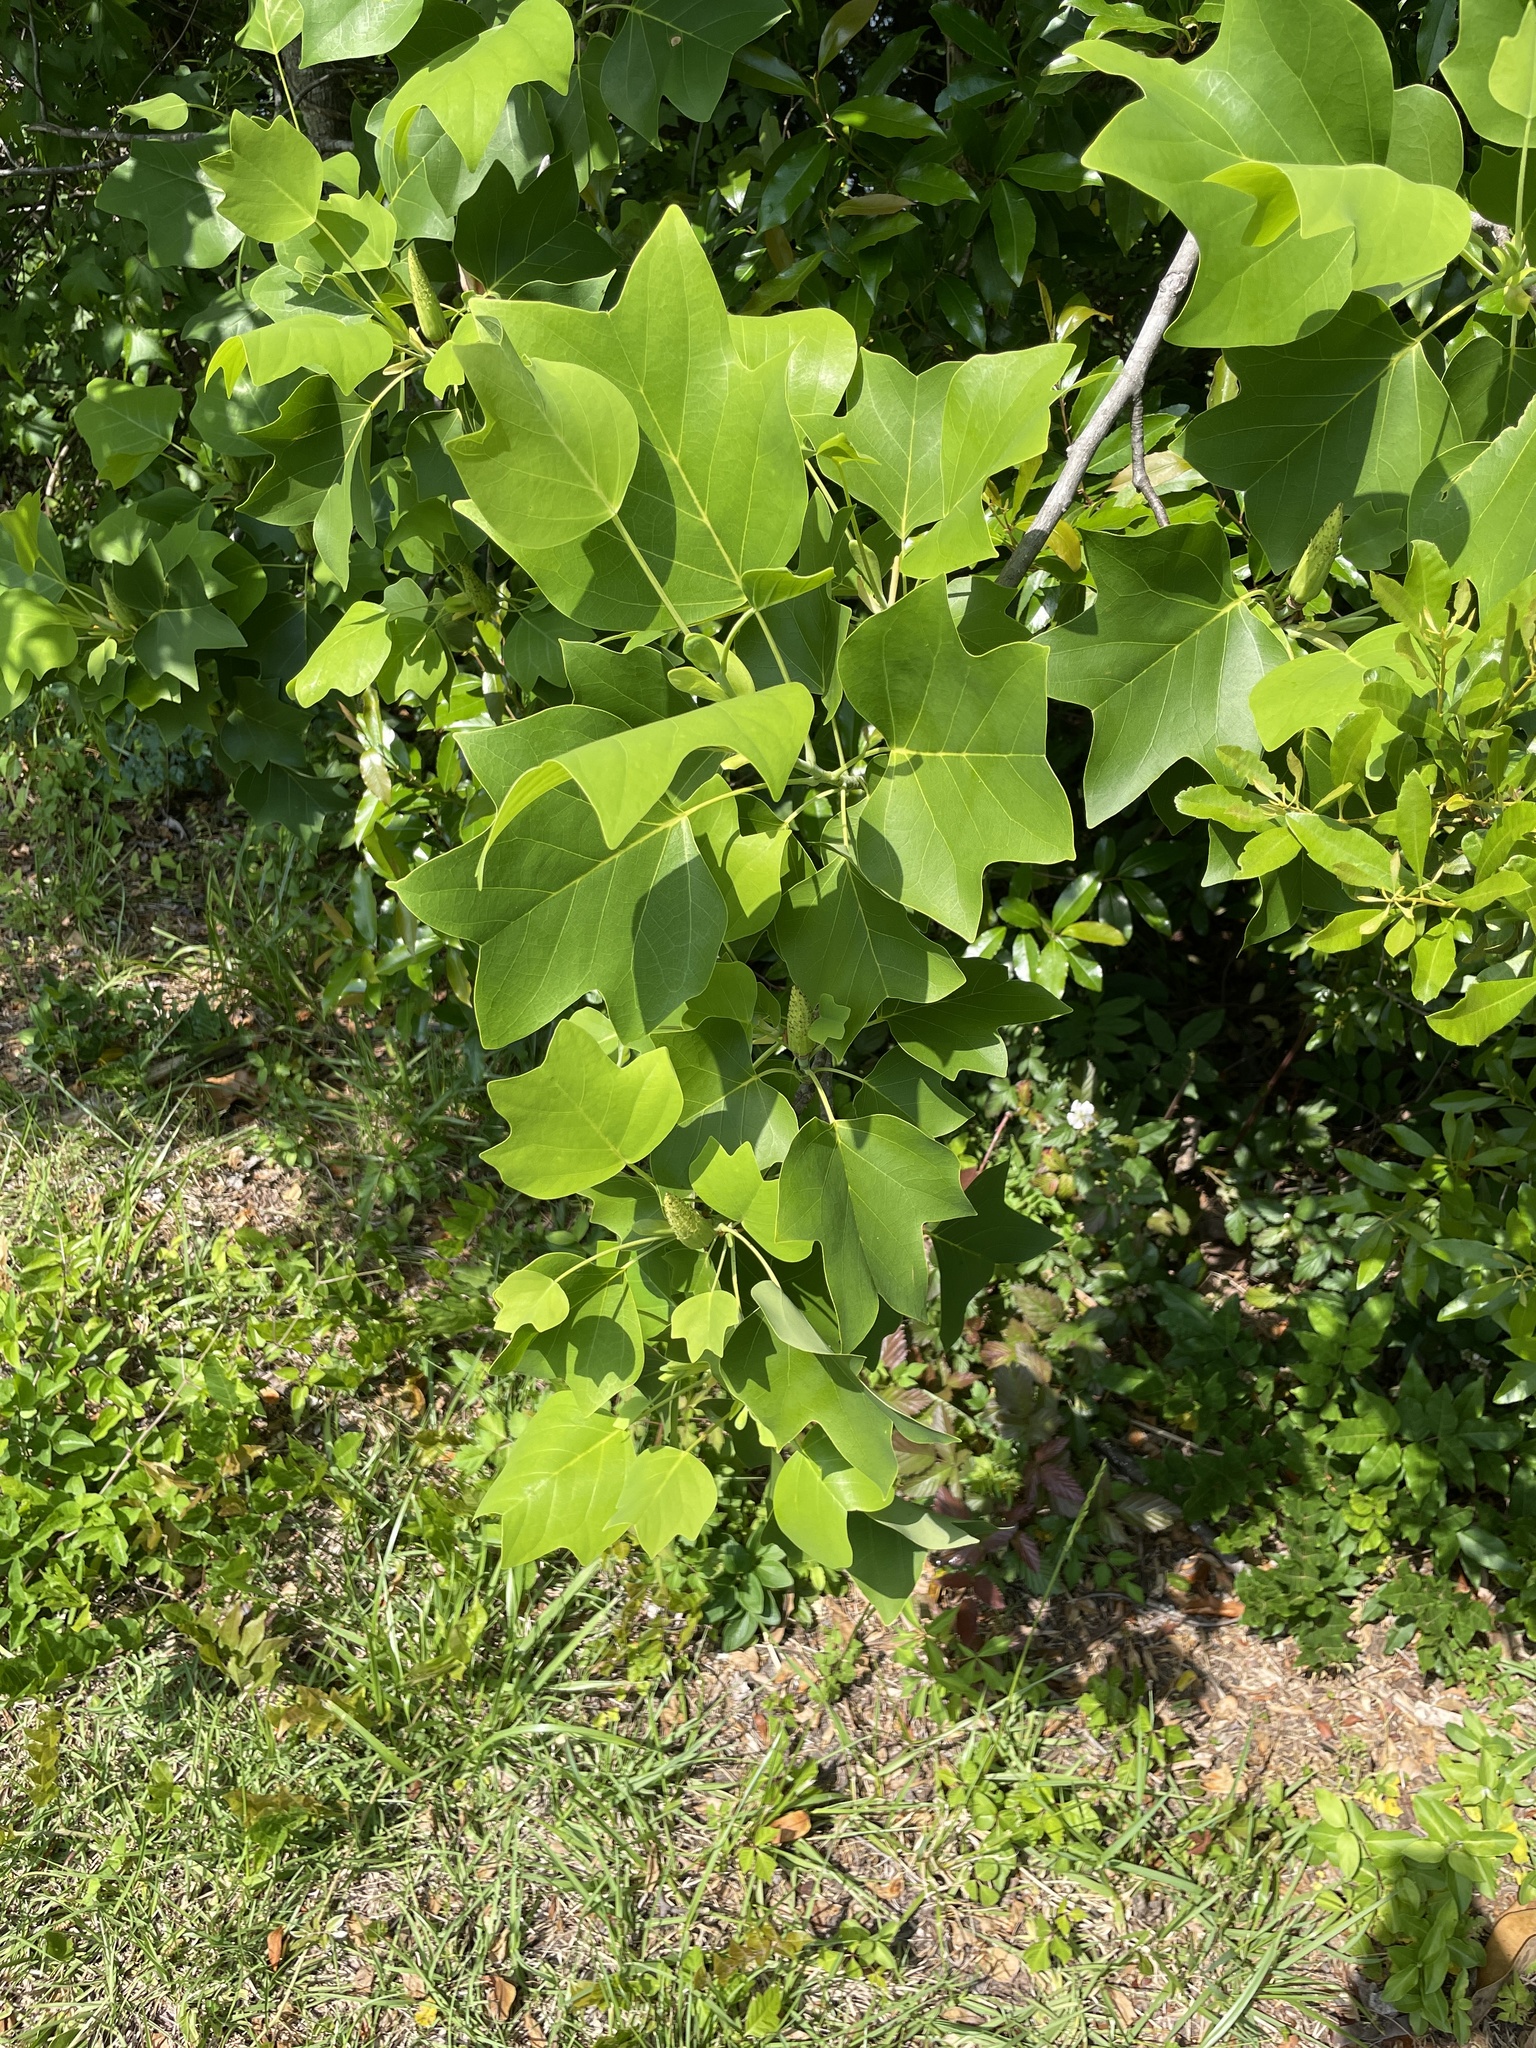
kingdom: Plantae
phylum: Tracheophyta
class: Magnoliopsida
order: Magnoliales
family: Magnoliaceae
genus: Liriodendron
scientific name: Liriodendron tulipifera
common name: Tulip tree
